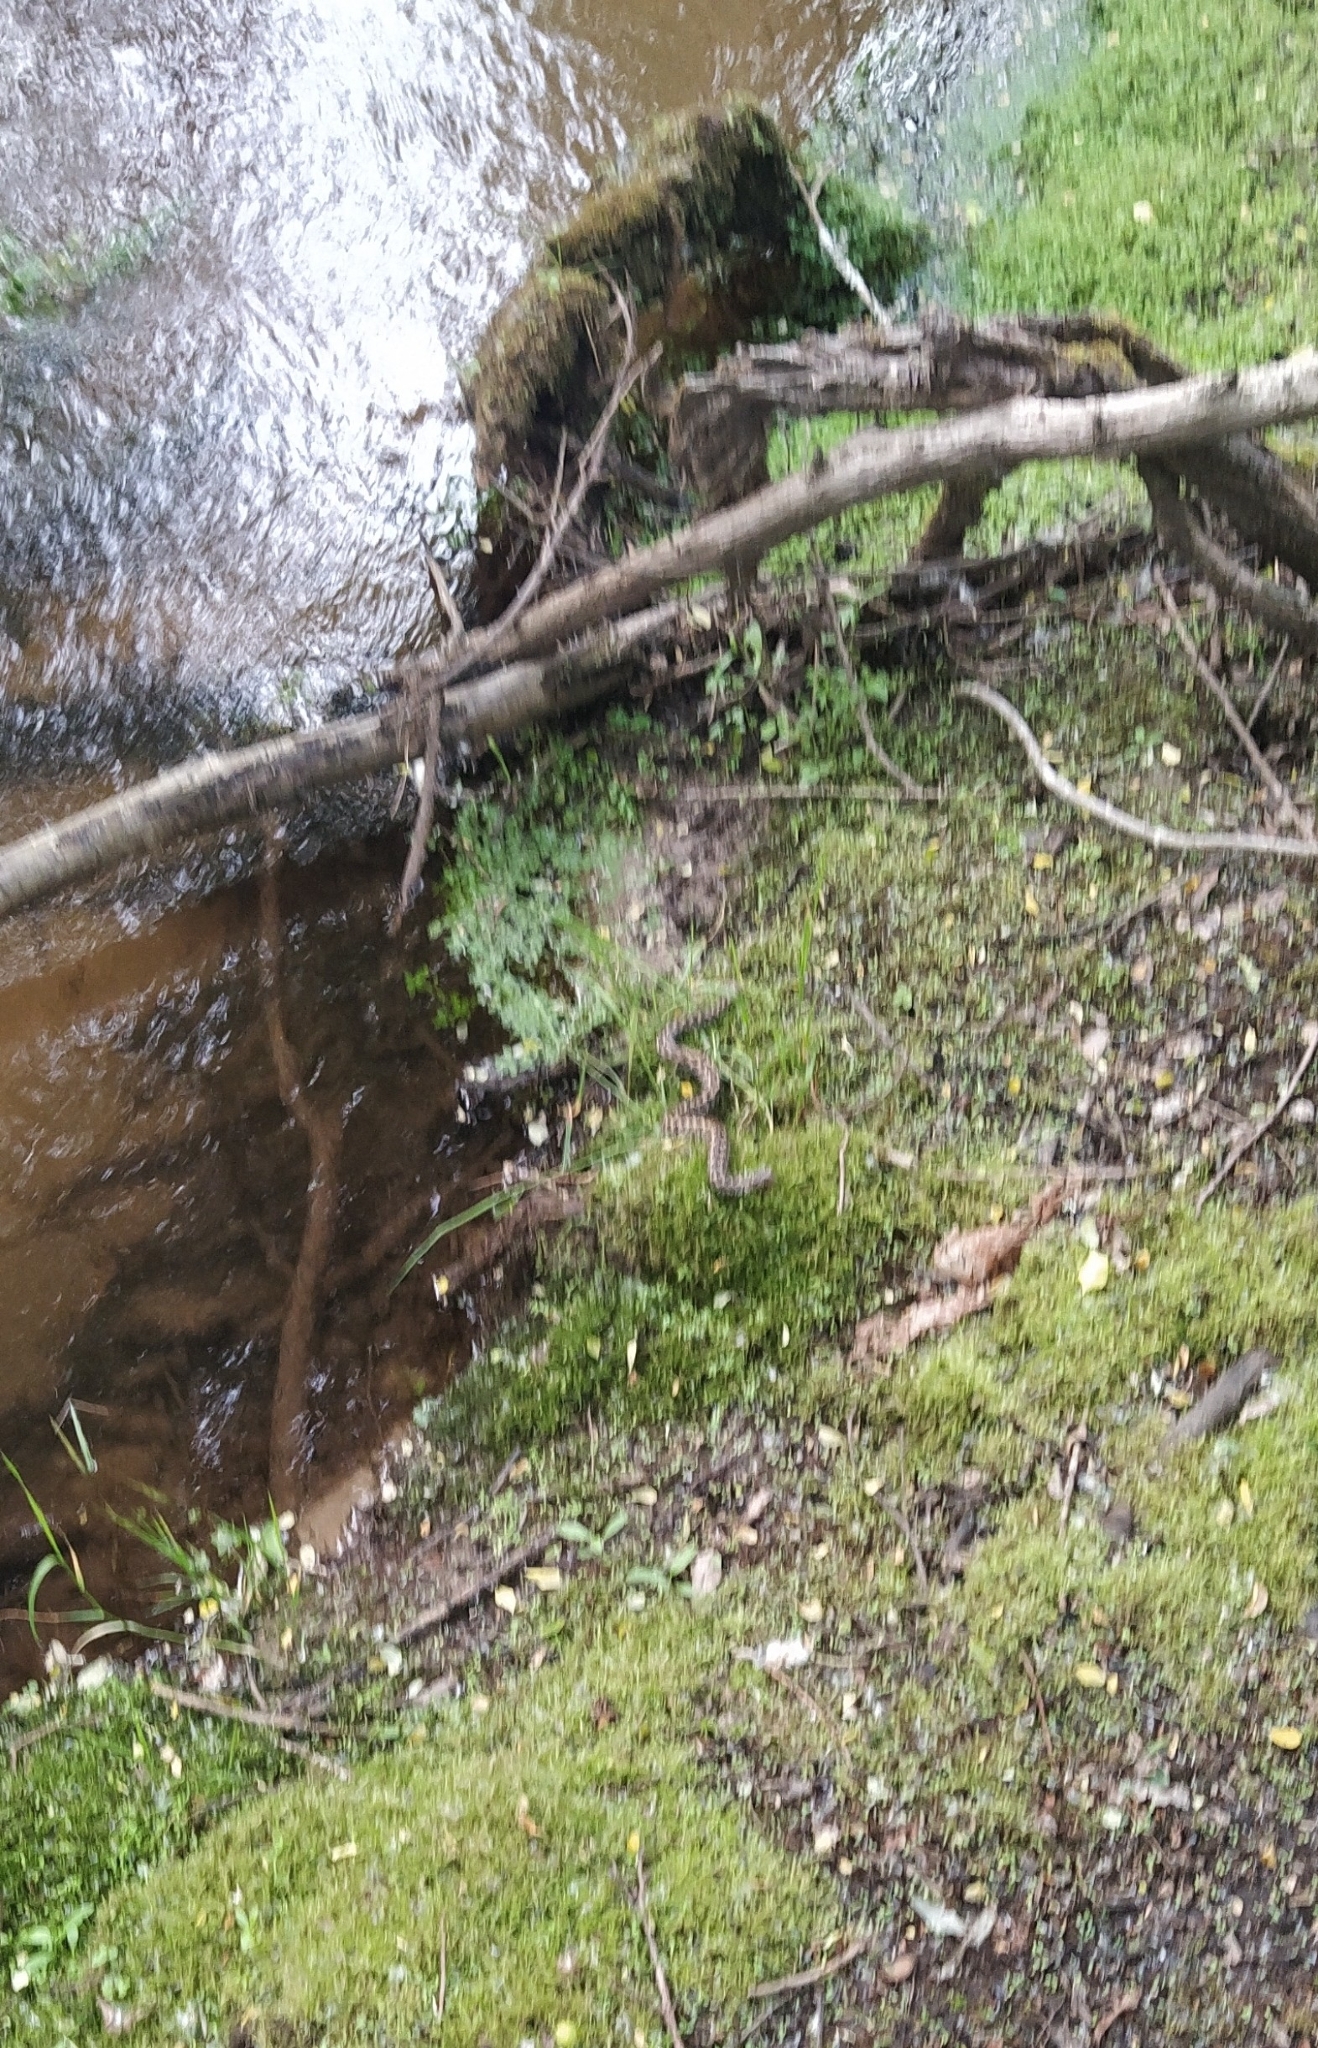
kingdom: Animalia
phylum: Chordata
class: Squamata
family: Viperidae
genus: Vipera
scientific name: Vipera seoanei
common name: Portugese viper
